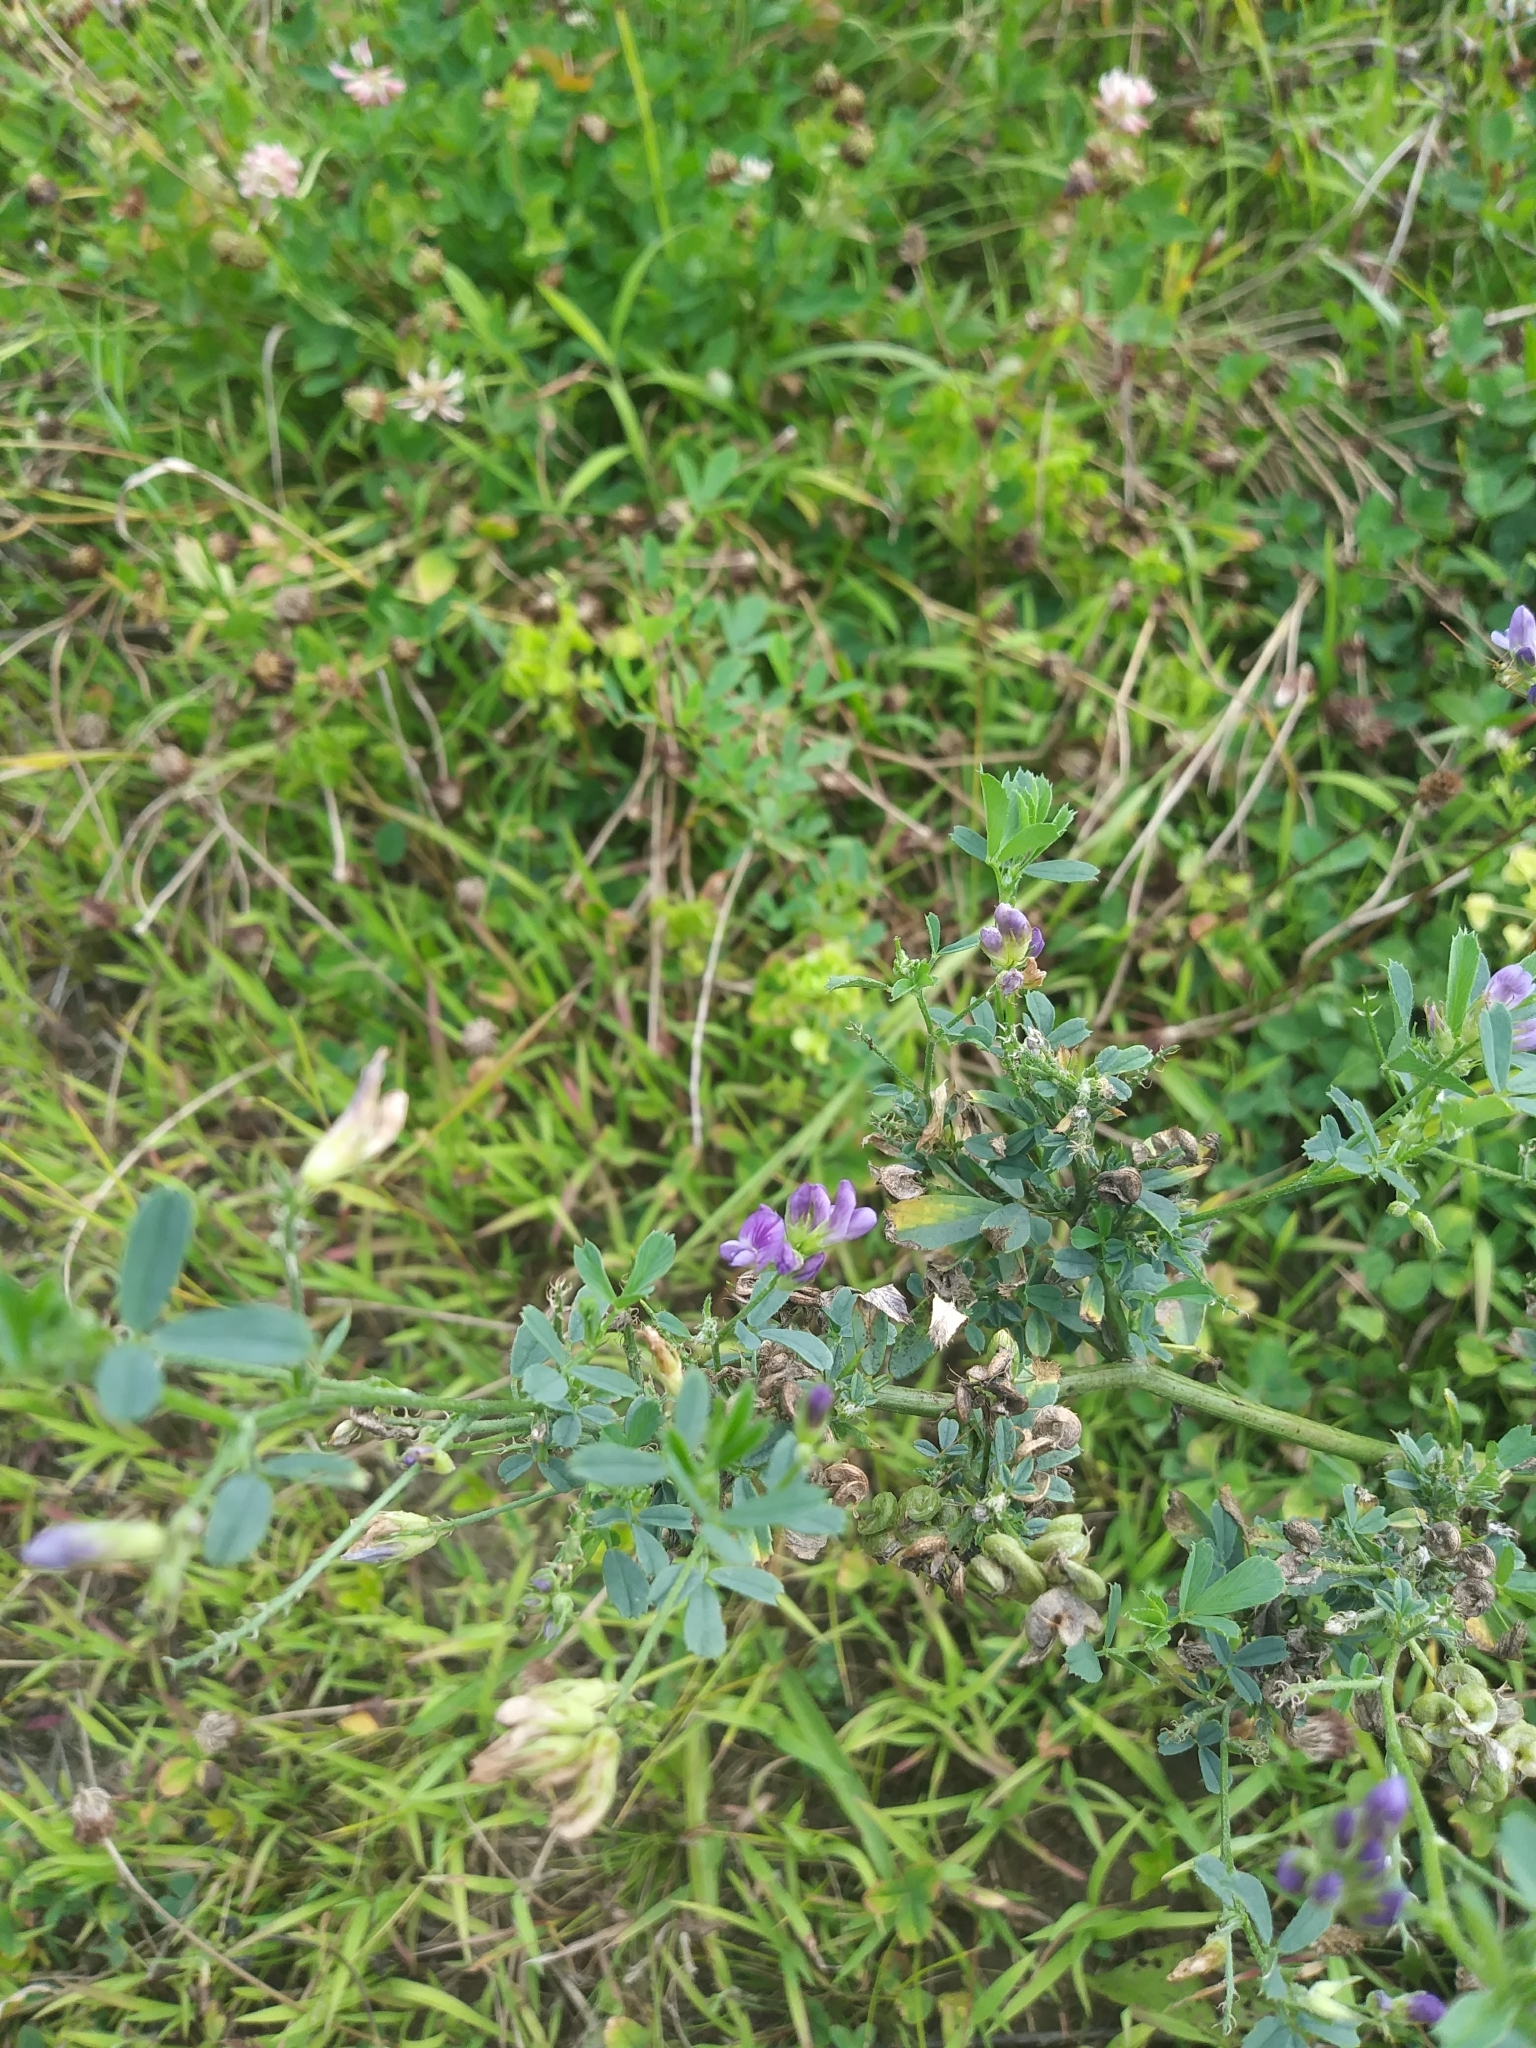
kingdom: Plantae
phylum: Tracheophyta
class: Magnoliopsida
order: Fabales
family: Fabaceae
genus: Medicago
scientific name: Medicago sativa
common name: Alfalfa
